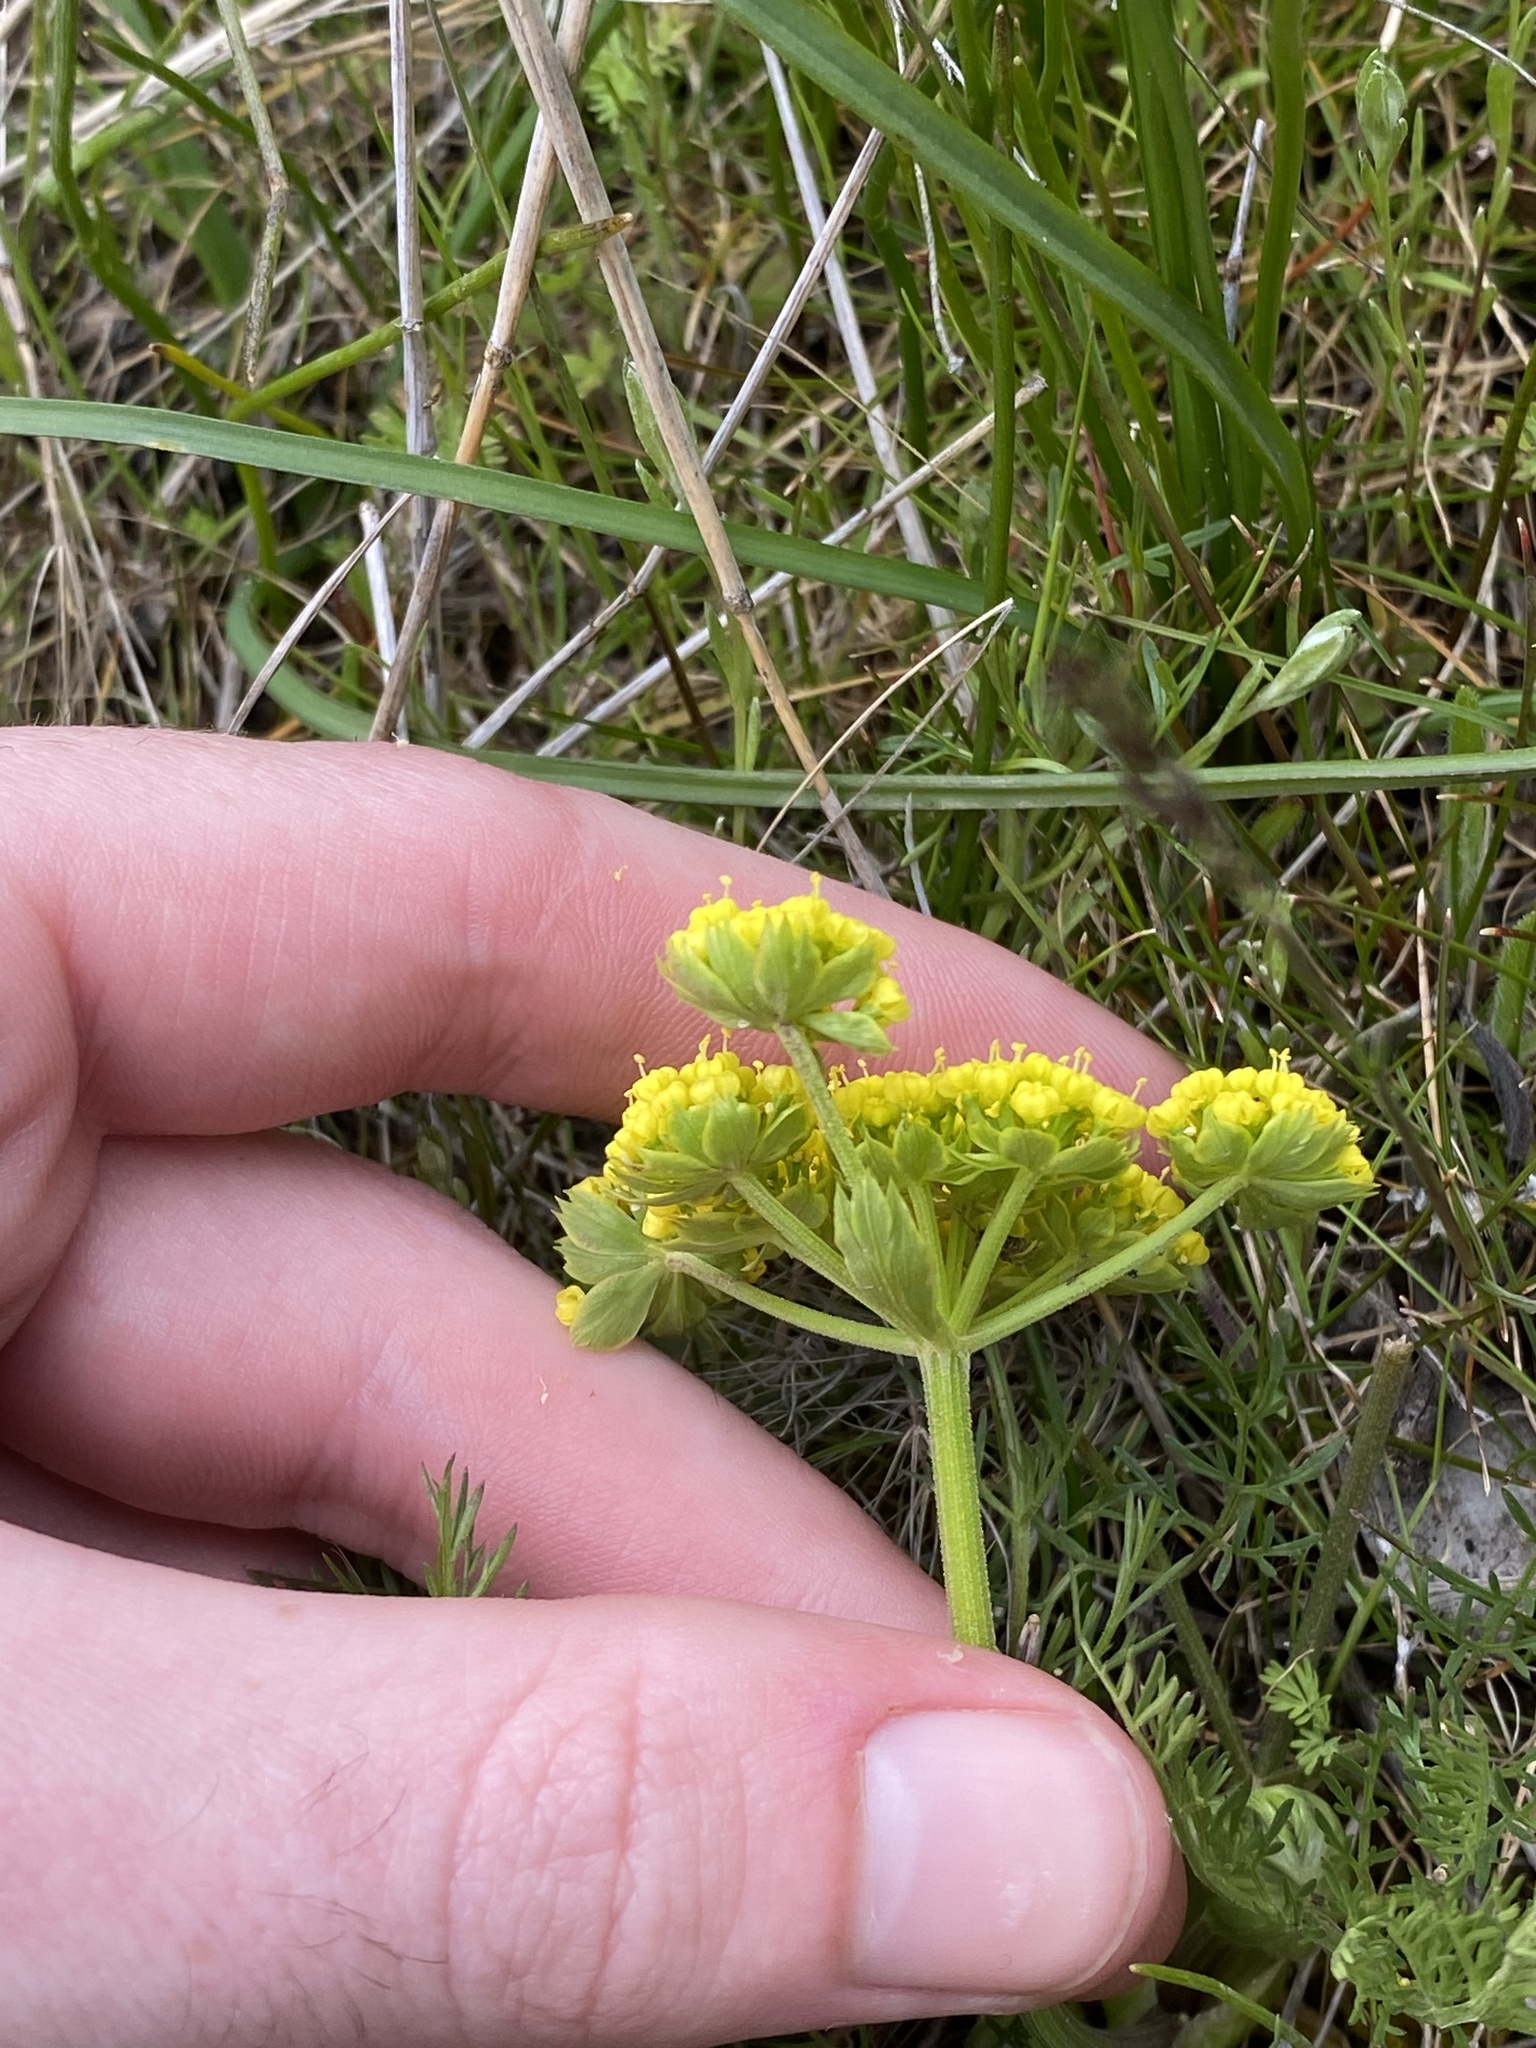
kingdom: Plantae
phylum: Tracheophyta
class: Magnoliopsida
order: Apiales
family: Apiaceae
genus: Lomatium
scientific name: Lomatium utriculatum
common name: Fine-leaf desert-parsley
